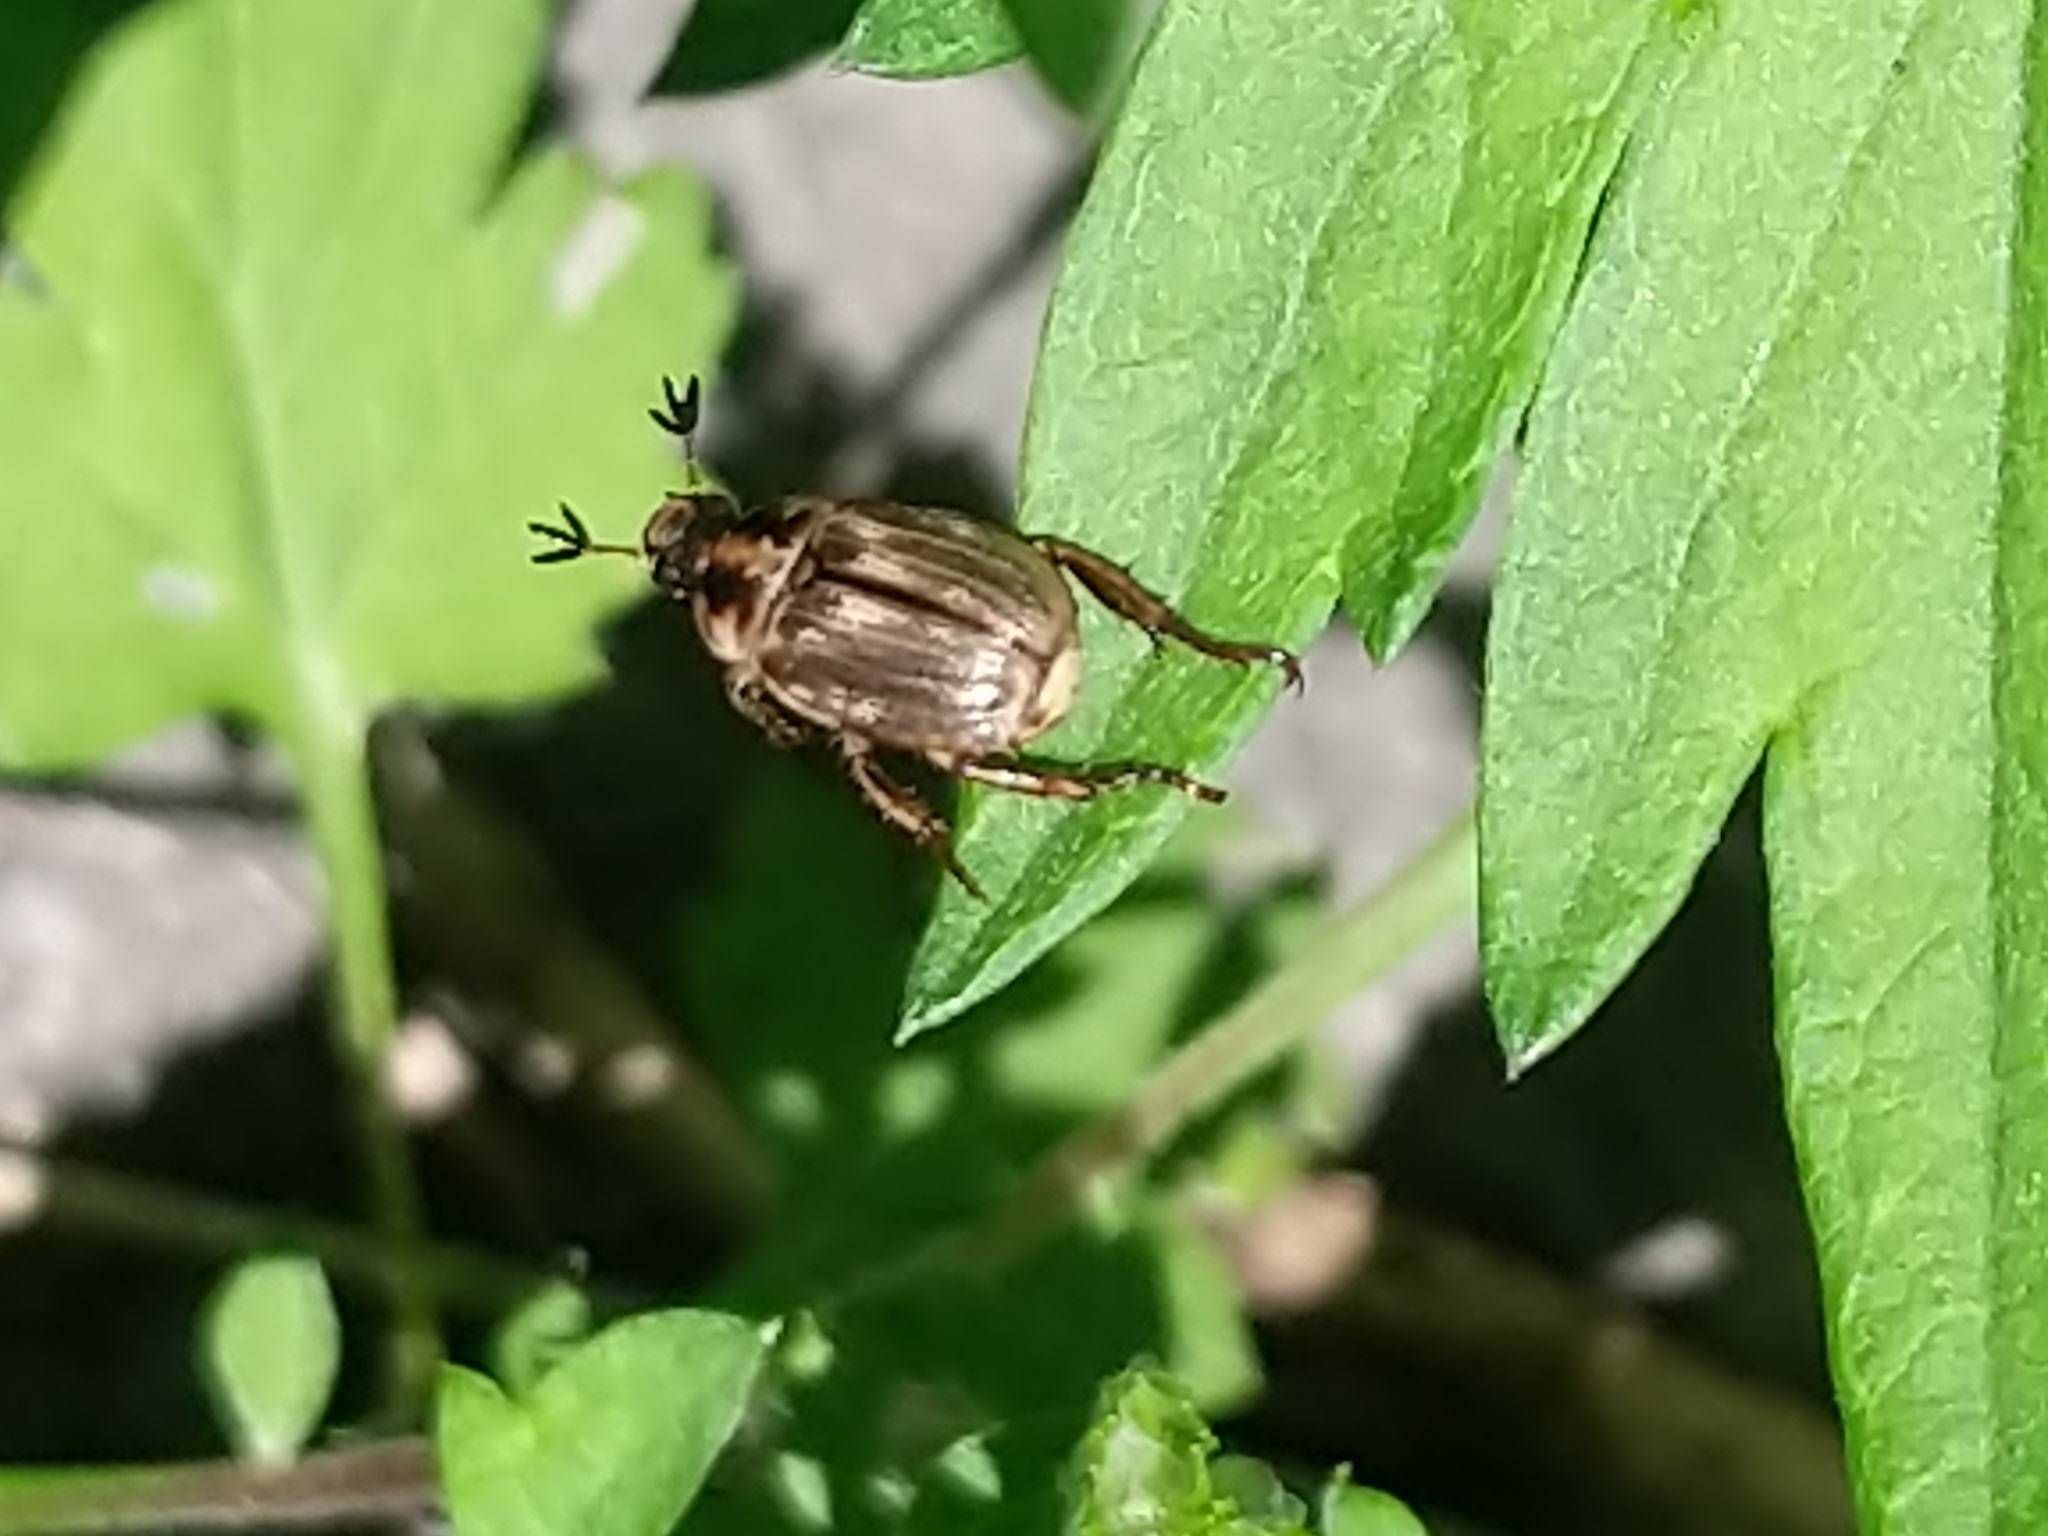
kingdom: Animalia
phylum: Arthropoda
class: Insecta
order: Coleoptera
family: Scarabaeidae
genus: Exomala
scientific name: Exomala orientalis
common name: Oriental beetle
